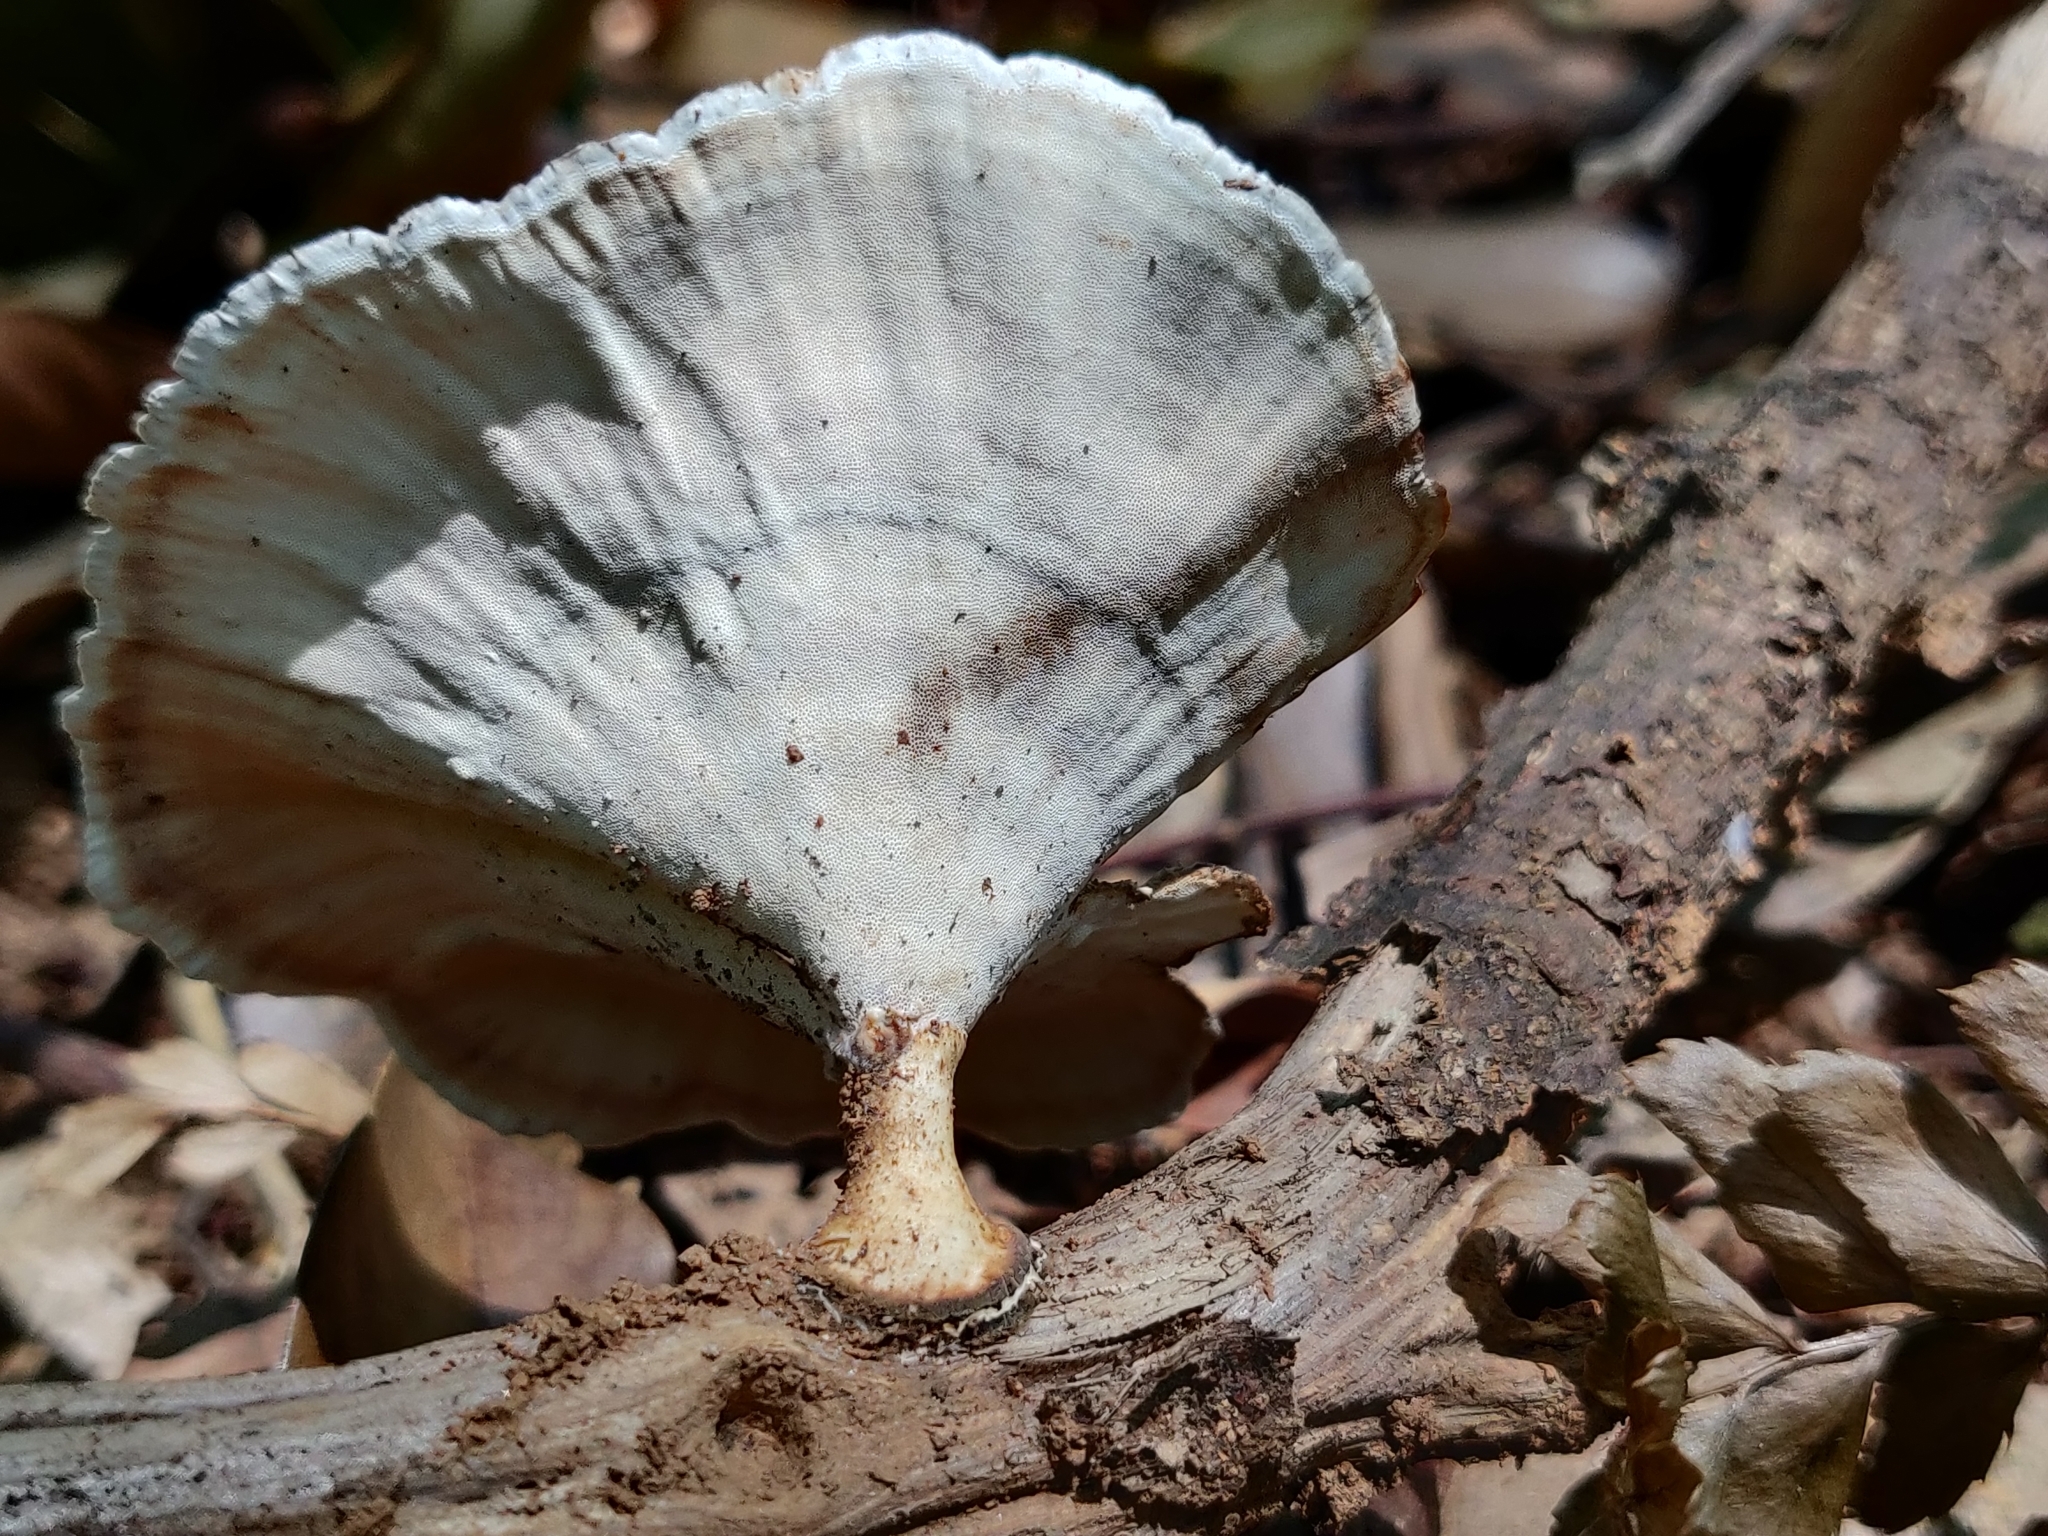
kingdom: Fungi
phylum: Basidiomycota
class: Agaricomycetes
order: Polyporales
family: Polyporaceae
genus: Microporus
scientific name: Microporus xanthopus
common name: Yellow-stemmed micropore
